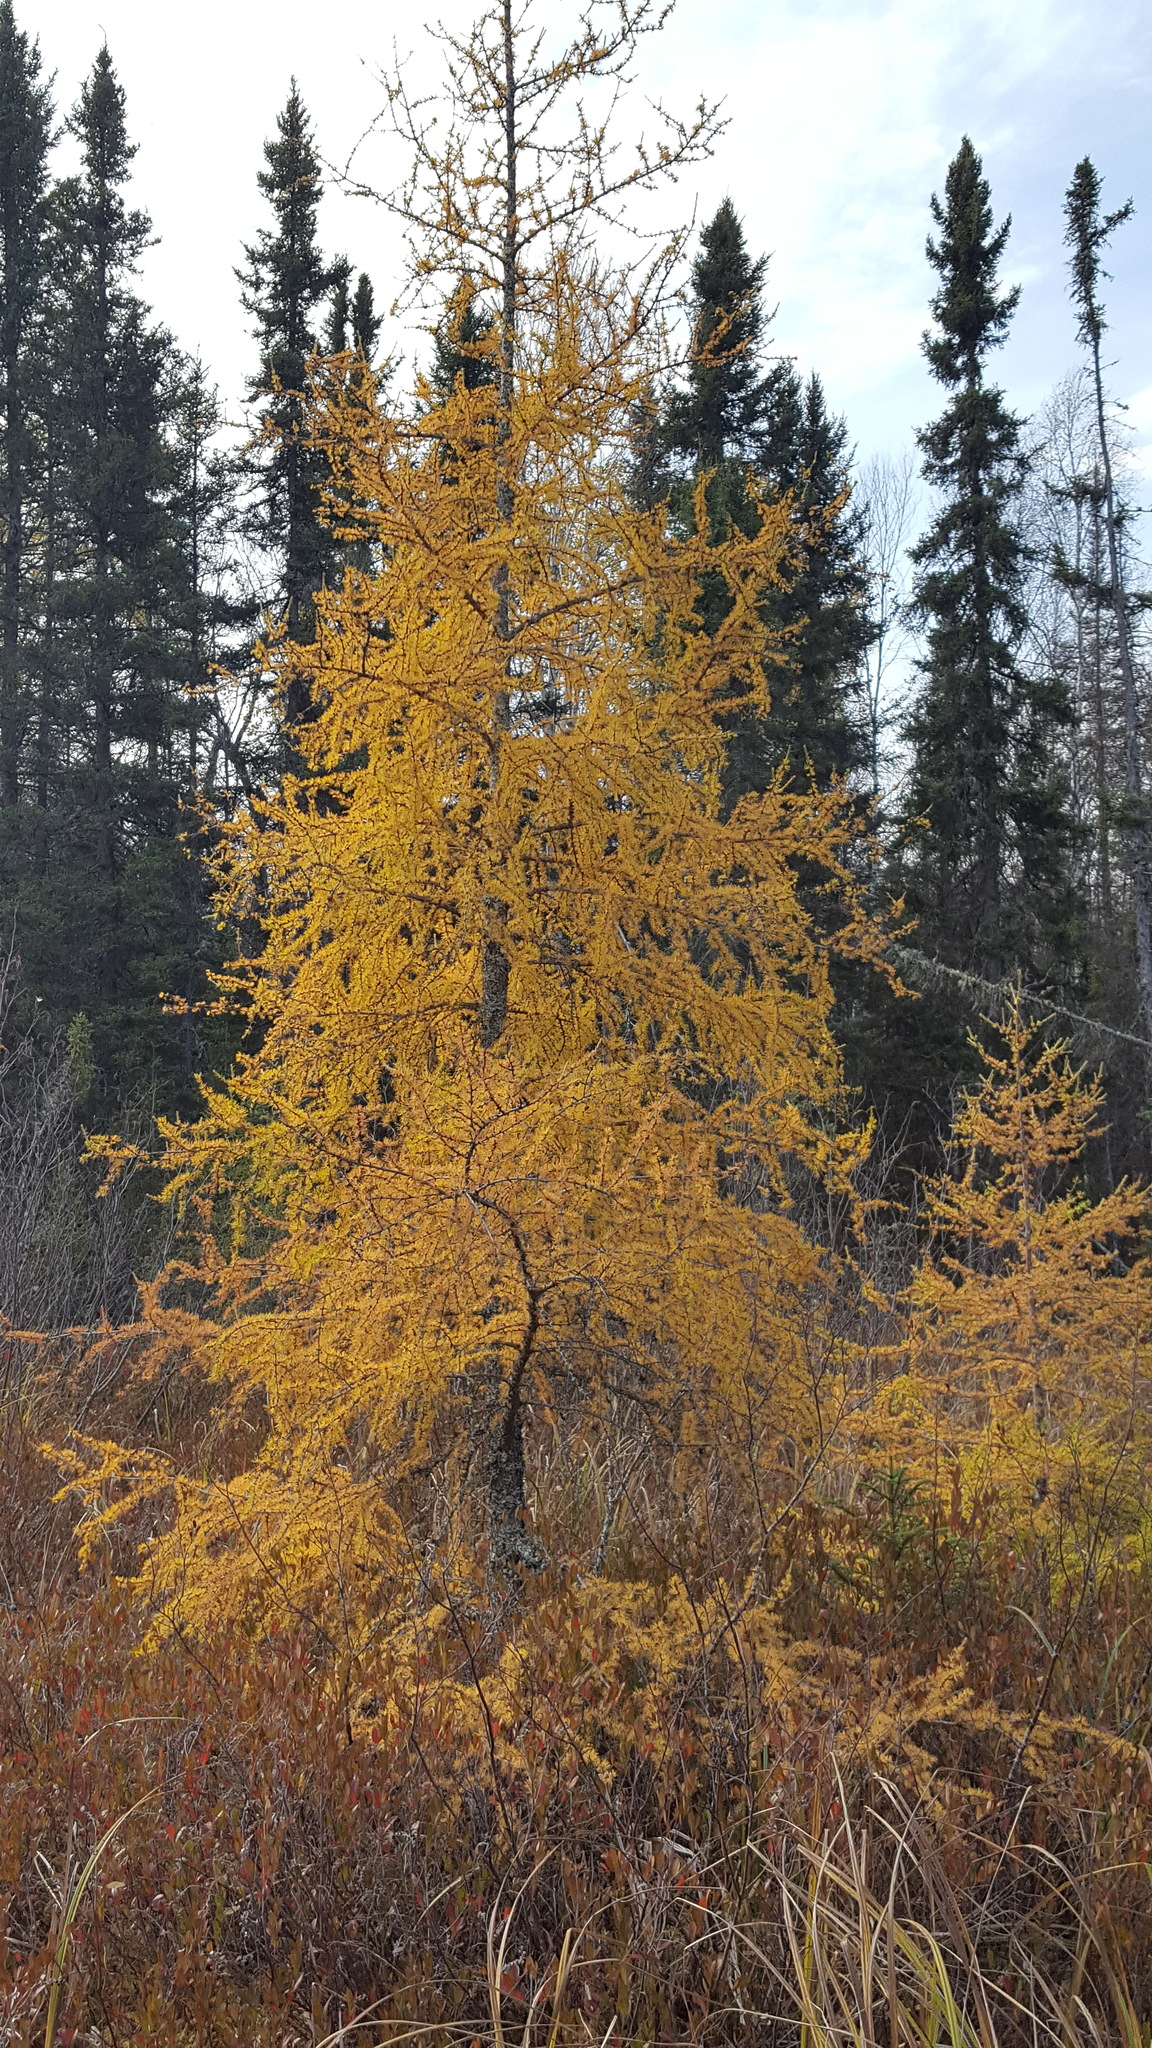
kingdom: Plantae
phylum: Tracheophyta
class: Pinopsida
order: Pinales
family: Pinaceae
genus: Larix
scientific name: Larix laricina
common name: American larch
